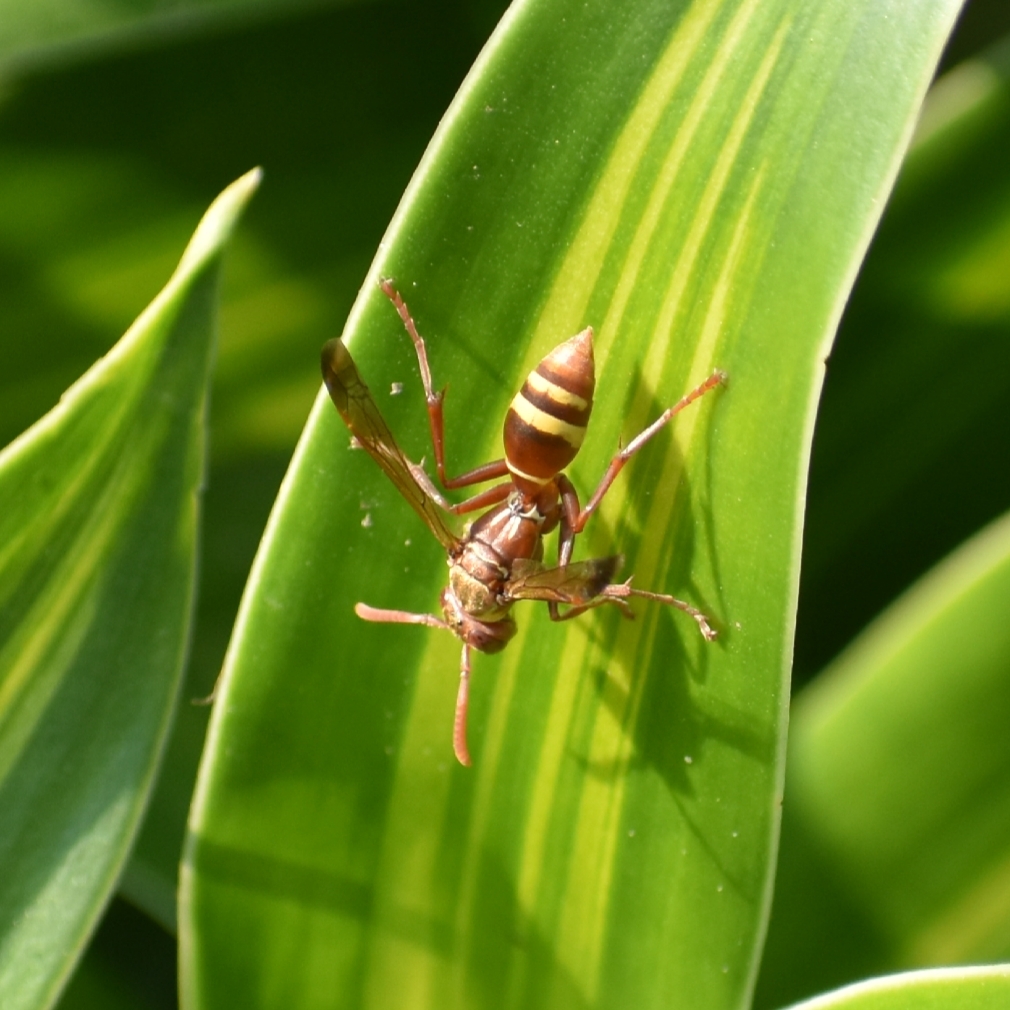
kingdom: Animalia
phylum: Arthropoda
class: Insecta
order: Hymenoptera
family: Eumenidae
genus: Polistes
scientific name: Polistes badius
